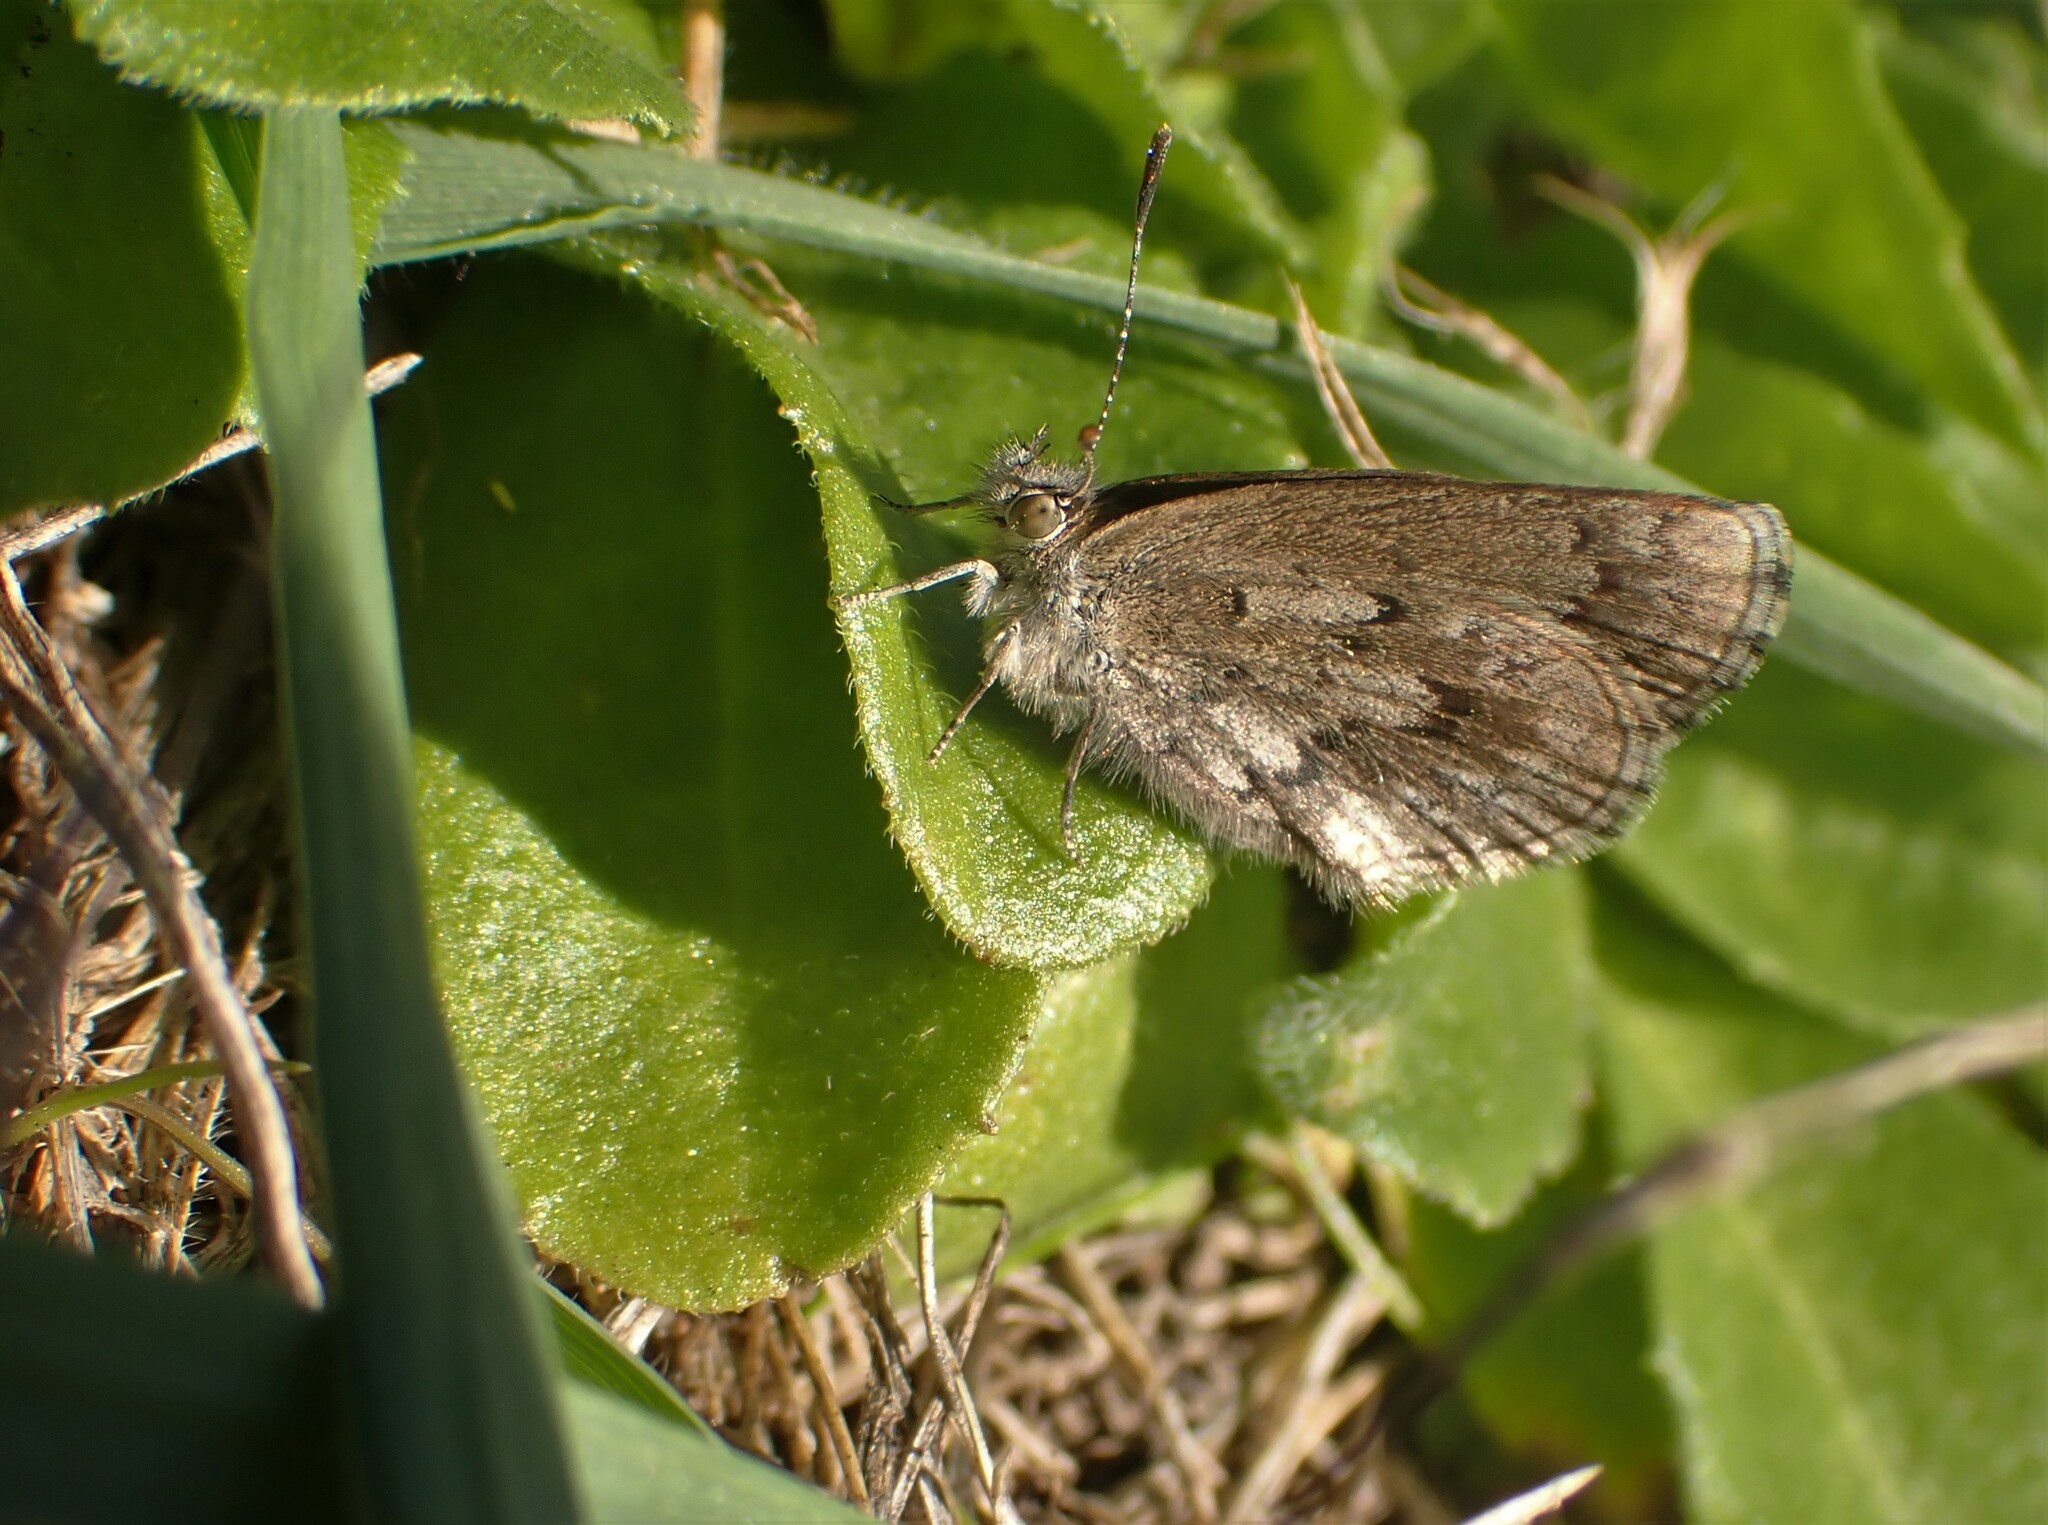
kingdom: Animalia
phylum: Arthropoda
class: Insecta
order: Lepidoptera
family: Lycaenidae
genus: Zizina
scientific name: Zizina oxleyi
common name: Southern blue
